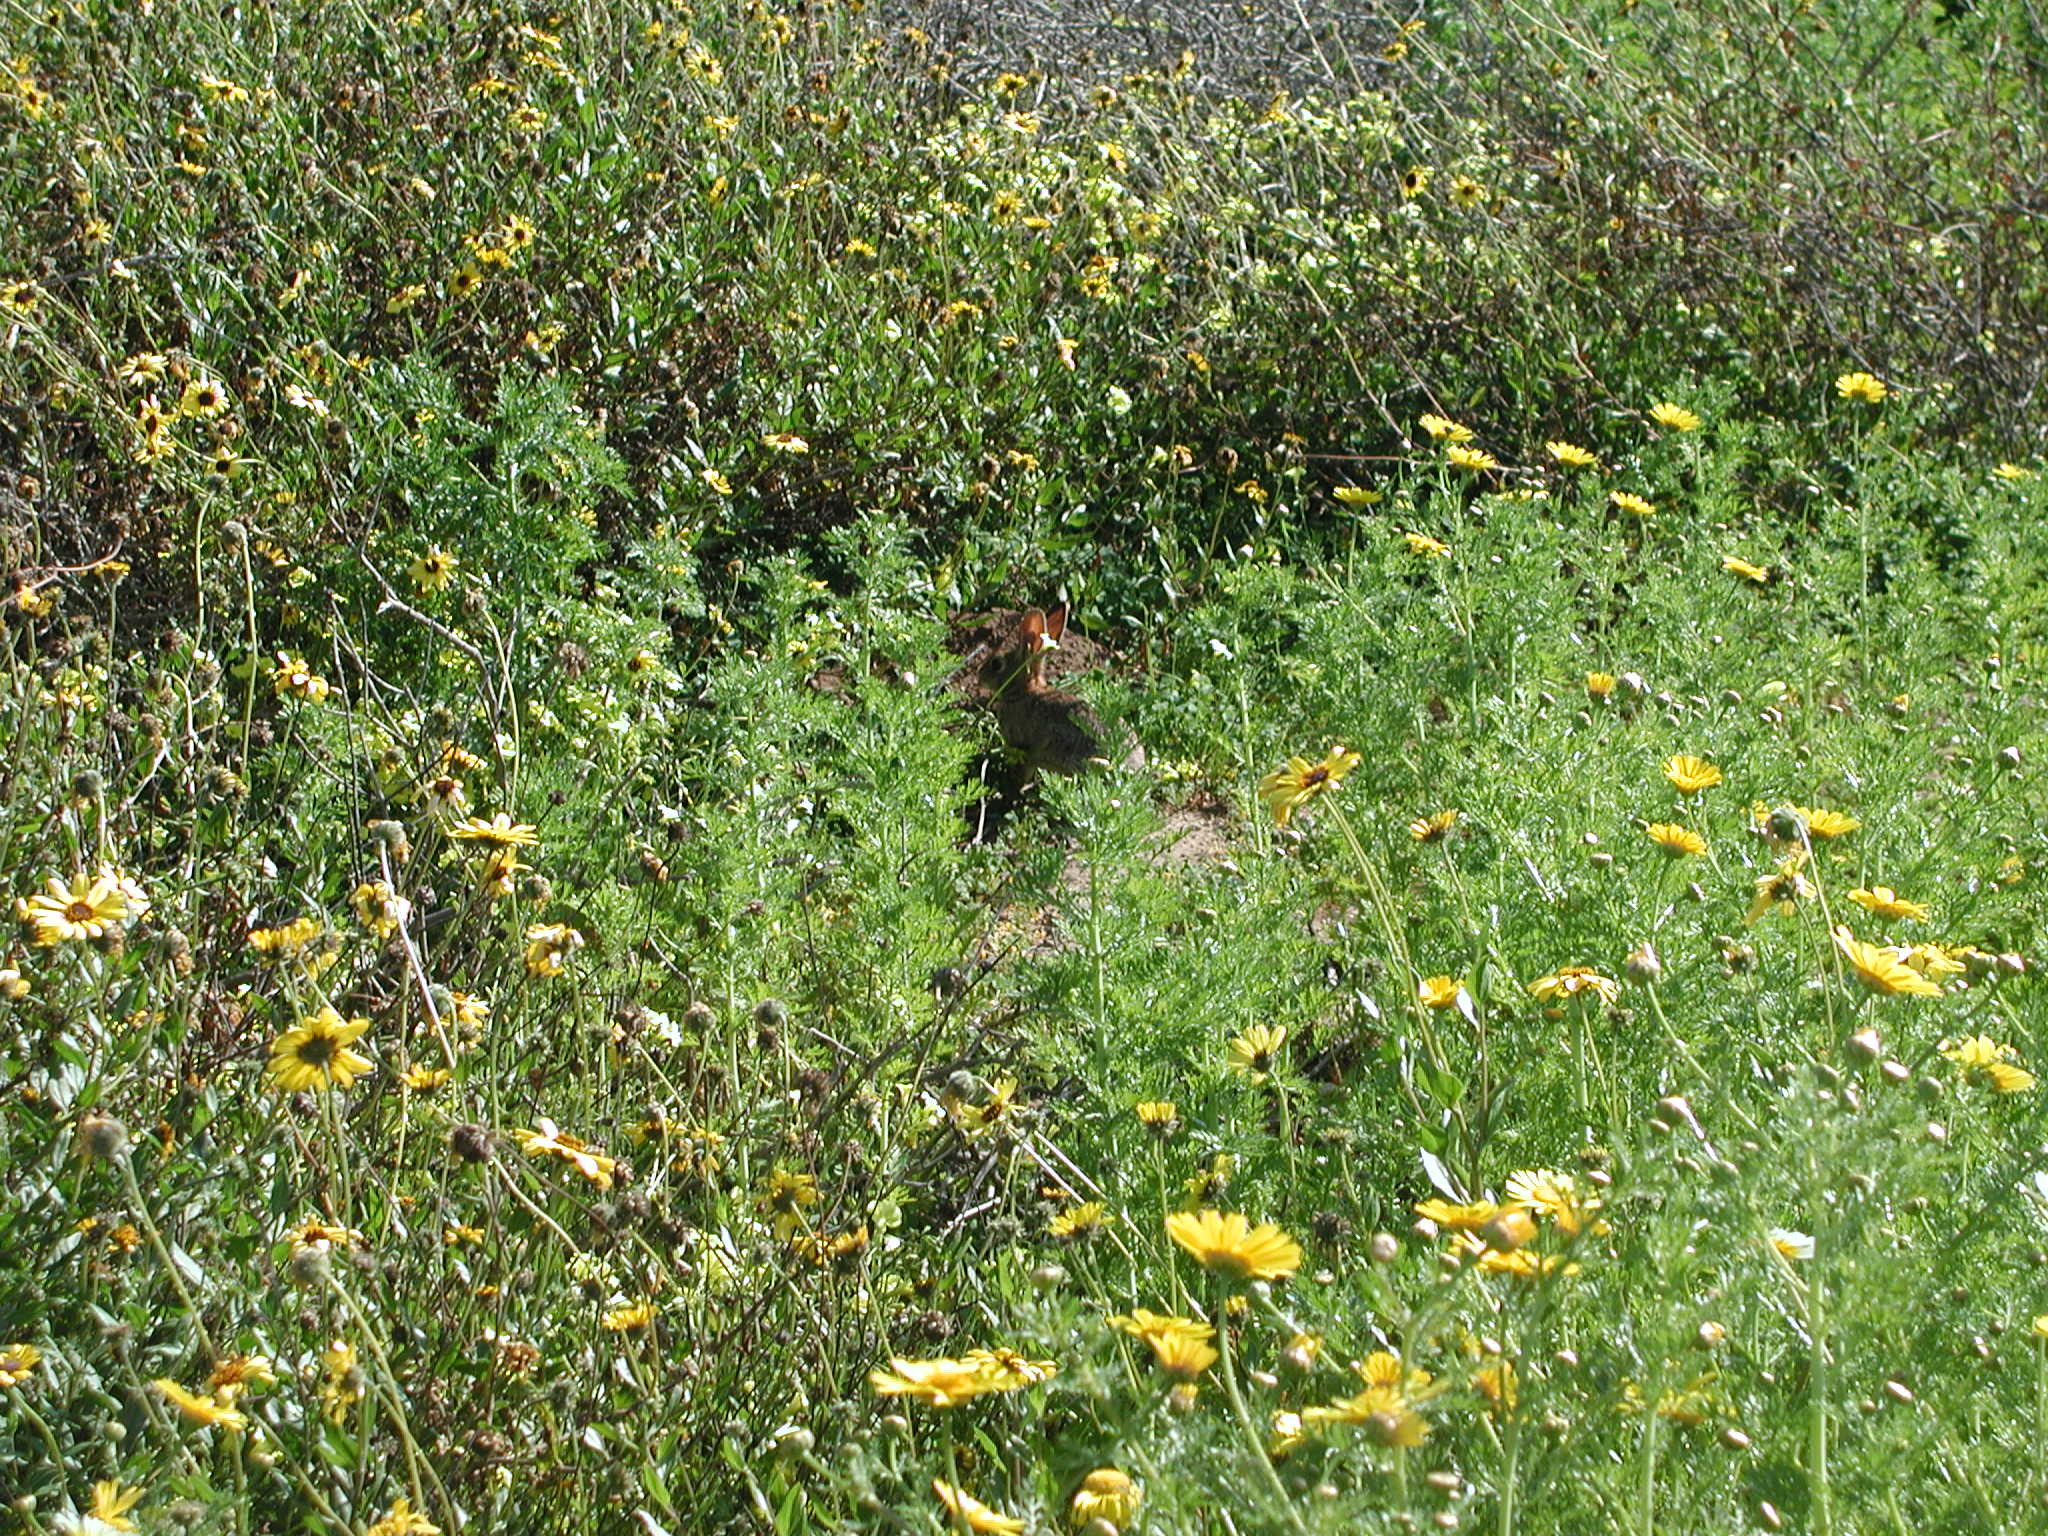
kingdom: Animalia
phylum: Chordata
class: Mammalia
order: Lagomorpha
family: Leporidae
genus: Sylvilagus
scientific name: Sylvilagus audubonii
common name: Desert cottontail
